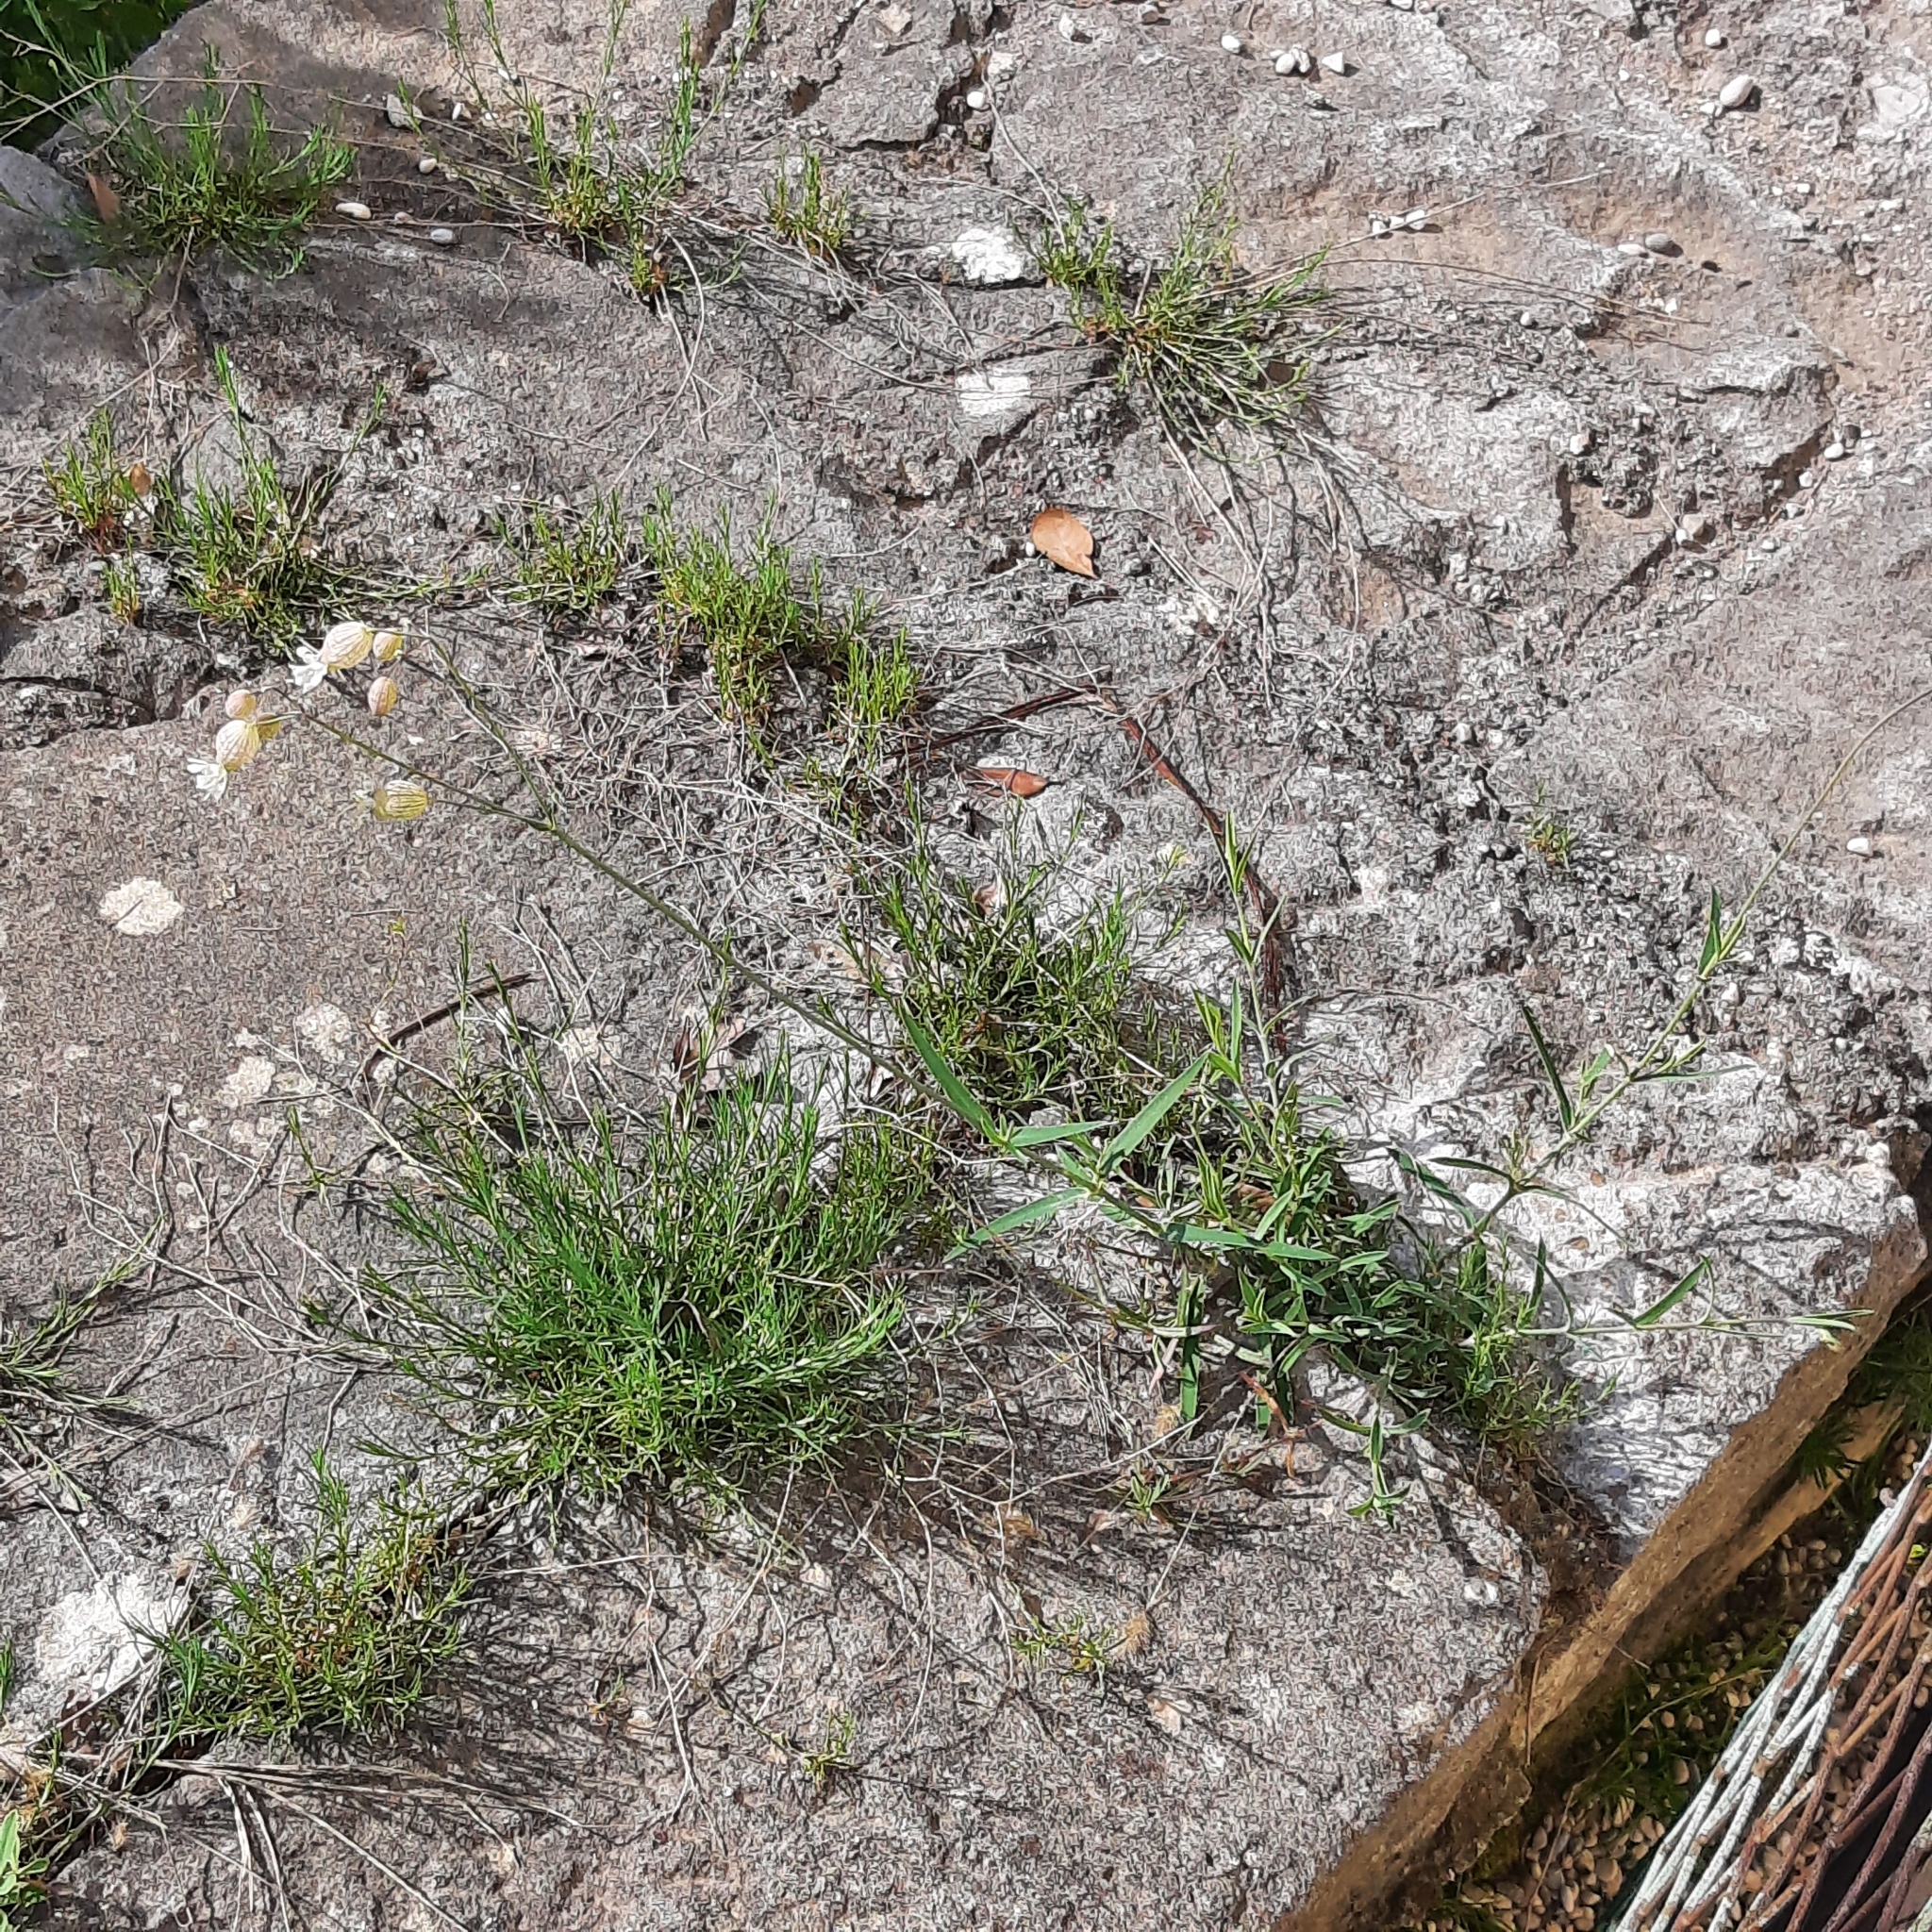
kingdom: Plantae
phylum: Tracheophyta
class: Magnoliopsida
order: Caryophyllales
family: Caryophyllaceae
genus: Silene
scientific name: Silene vulgaris
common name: Bladder campion
